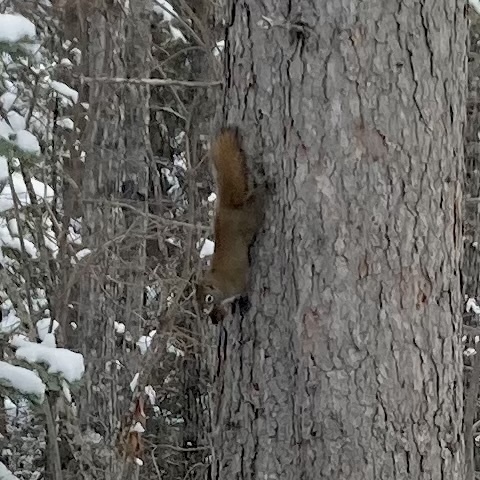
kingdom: Animalia
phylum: Chordata
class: Mammalia
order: Rodentia
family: Sciuridae
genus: Tamiasciurus
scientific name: Tamiasciurus hudsonicus
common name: Red squirrel
